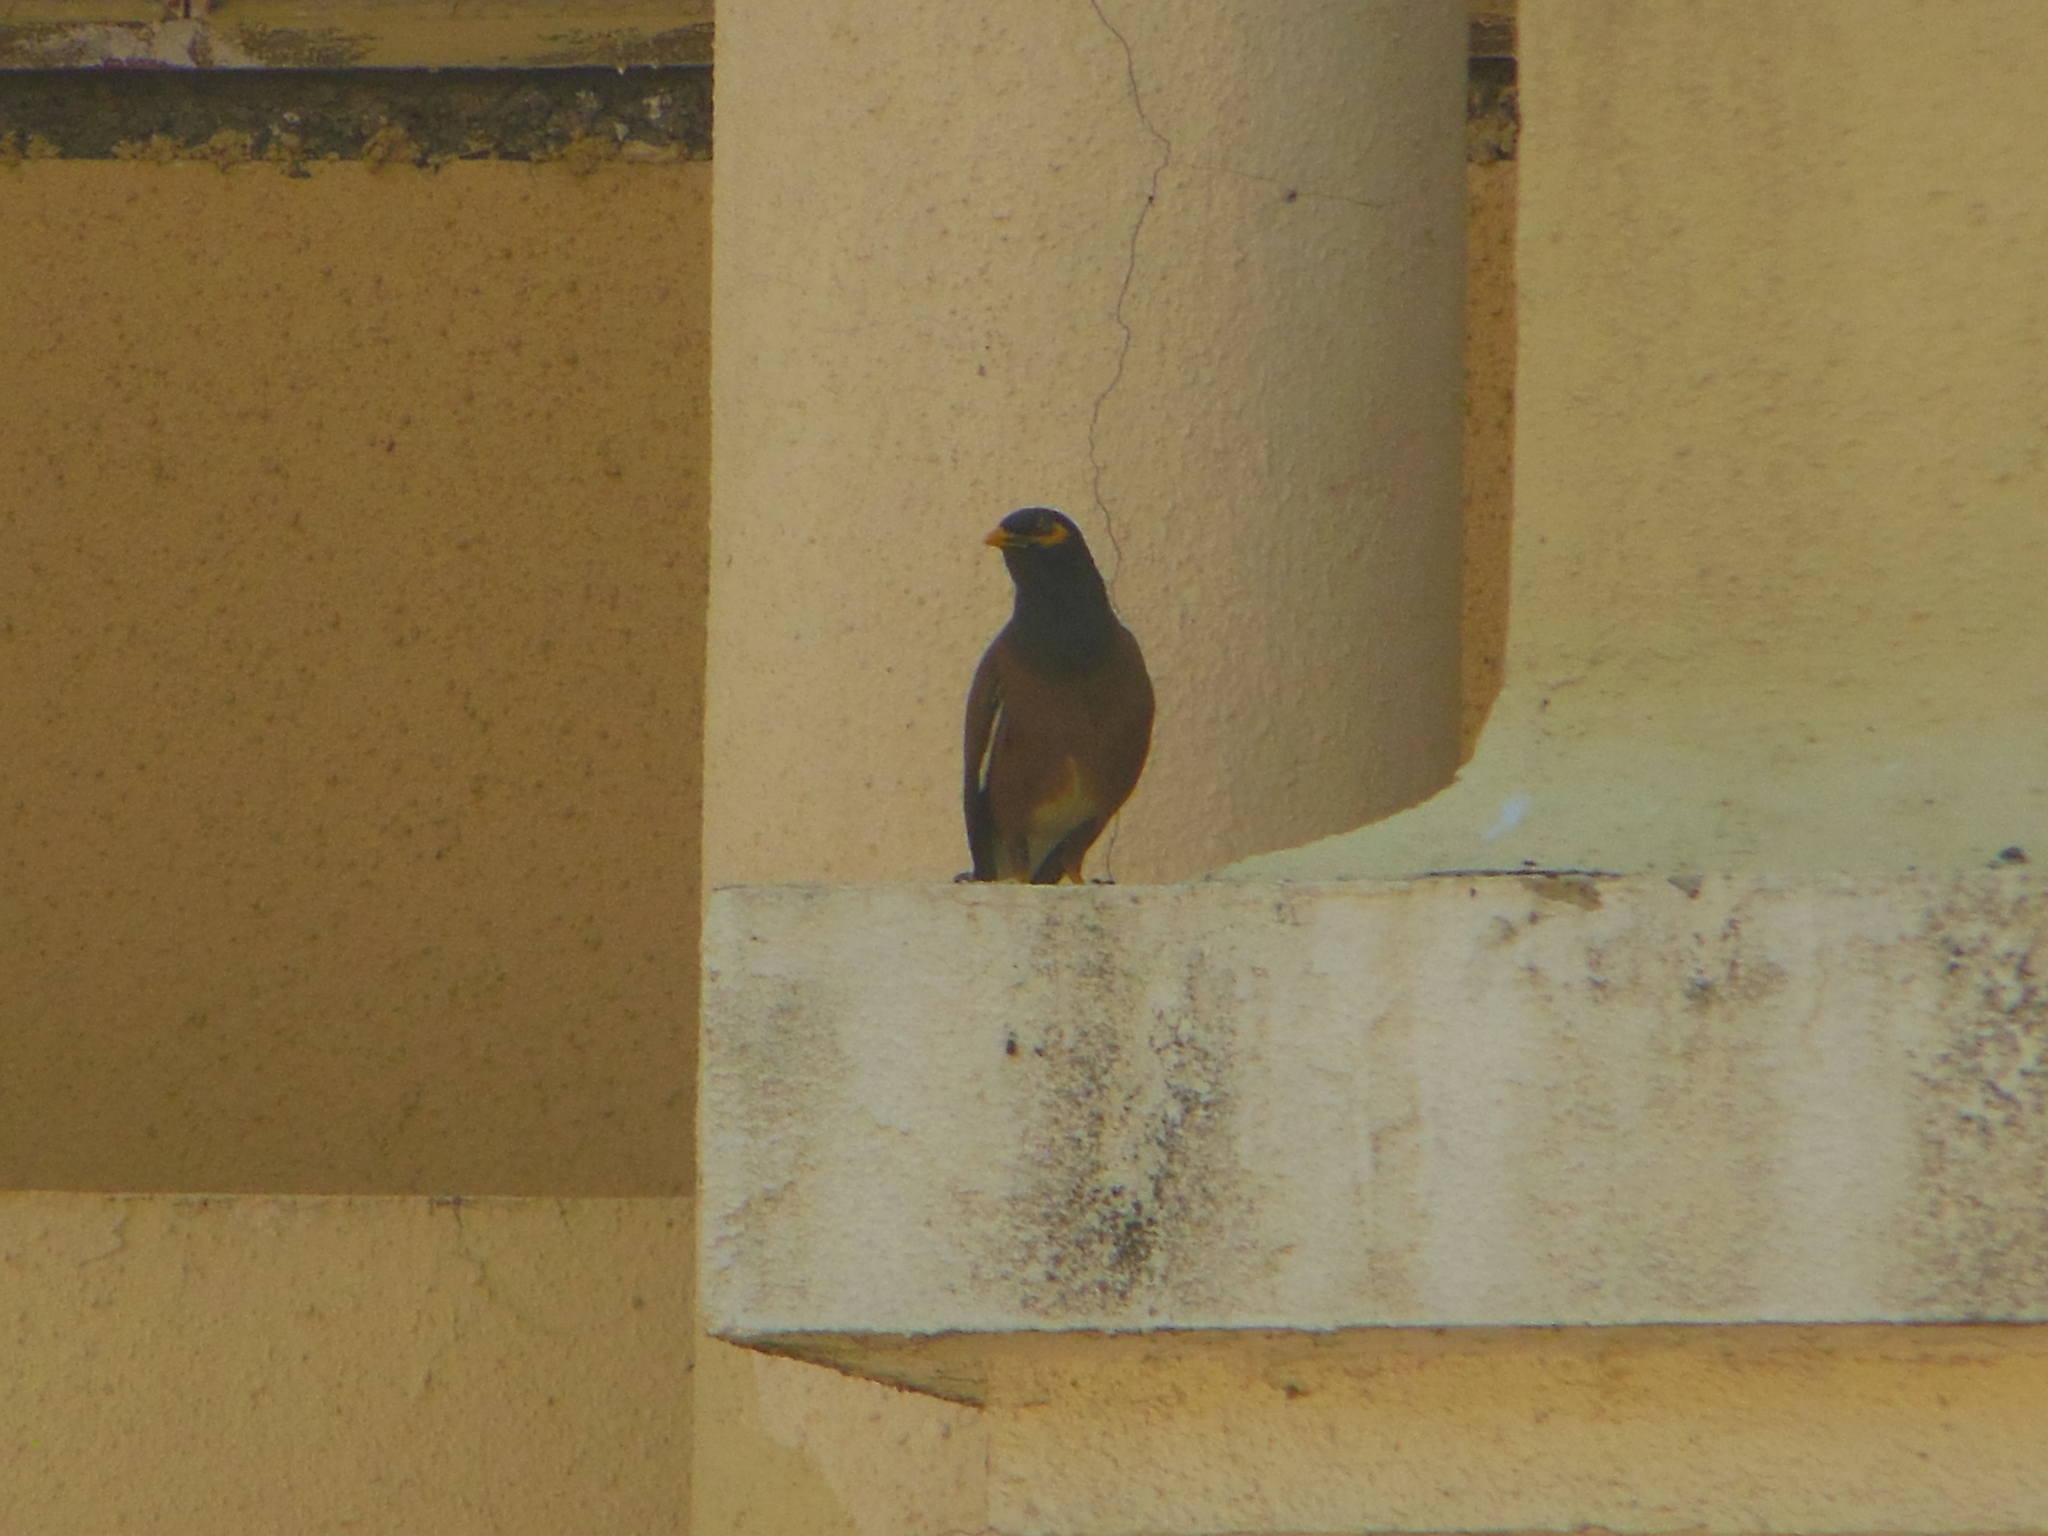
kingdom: Animalia
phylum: Chordata
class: Aves
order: Passeriformes
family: Sturnidae
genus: Acridotheres
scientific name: Acridotheres tristis
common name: Common myna
